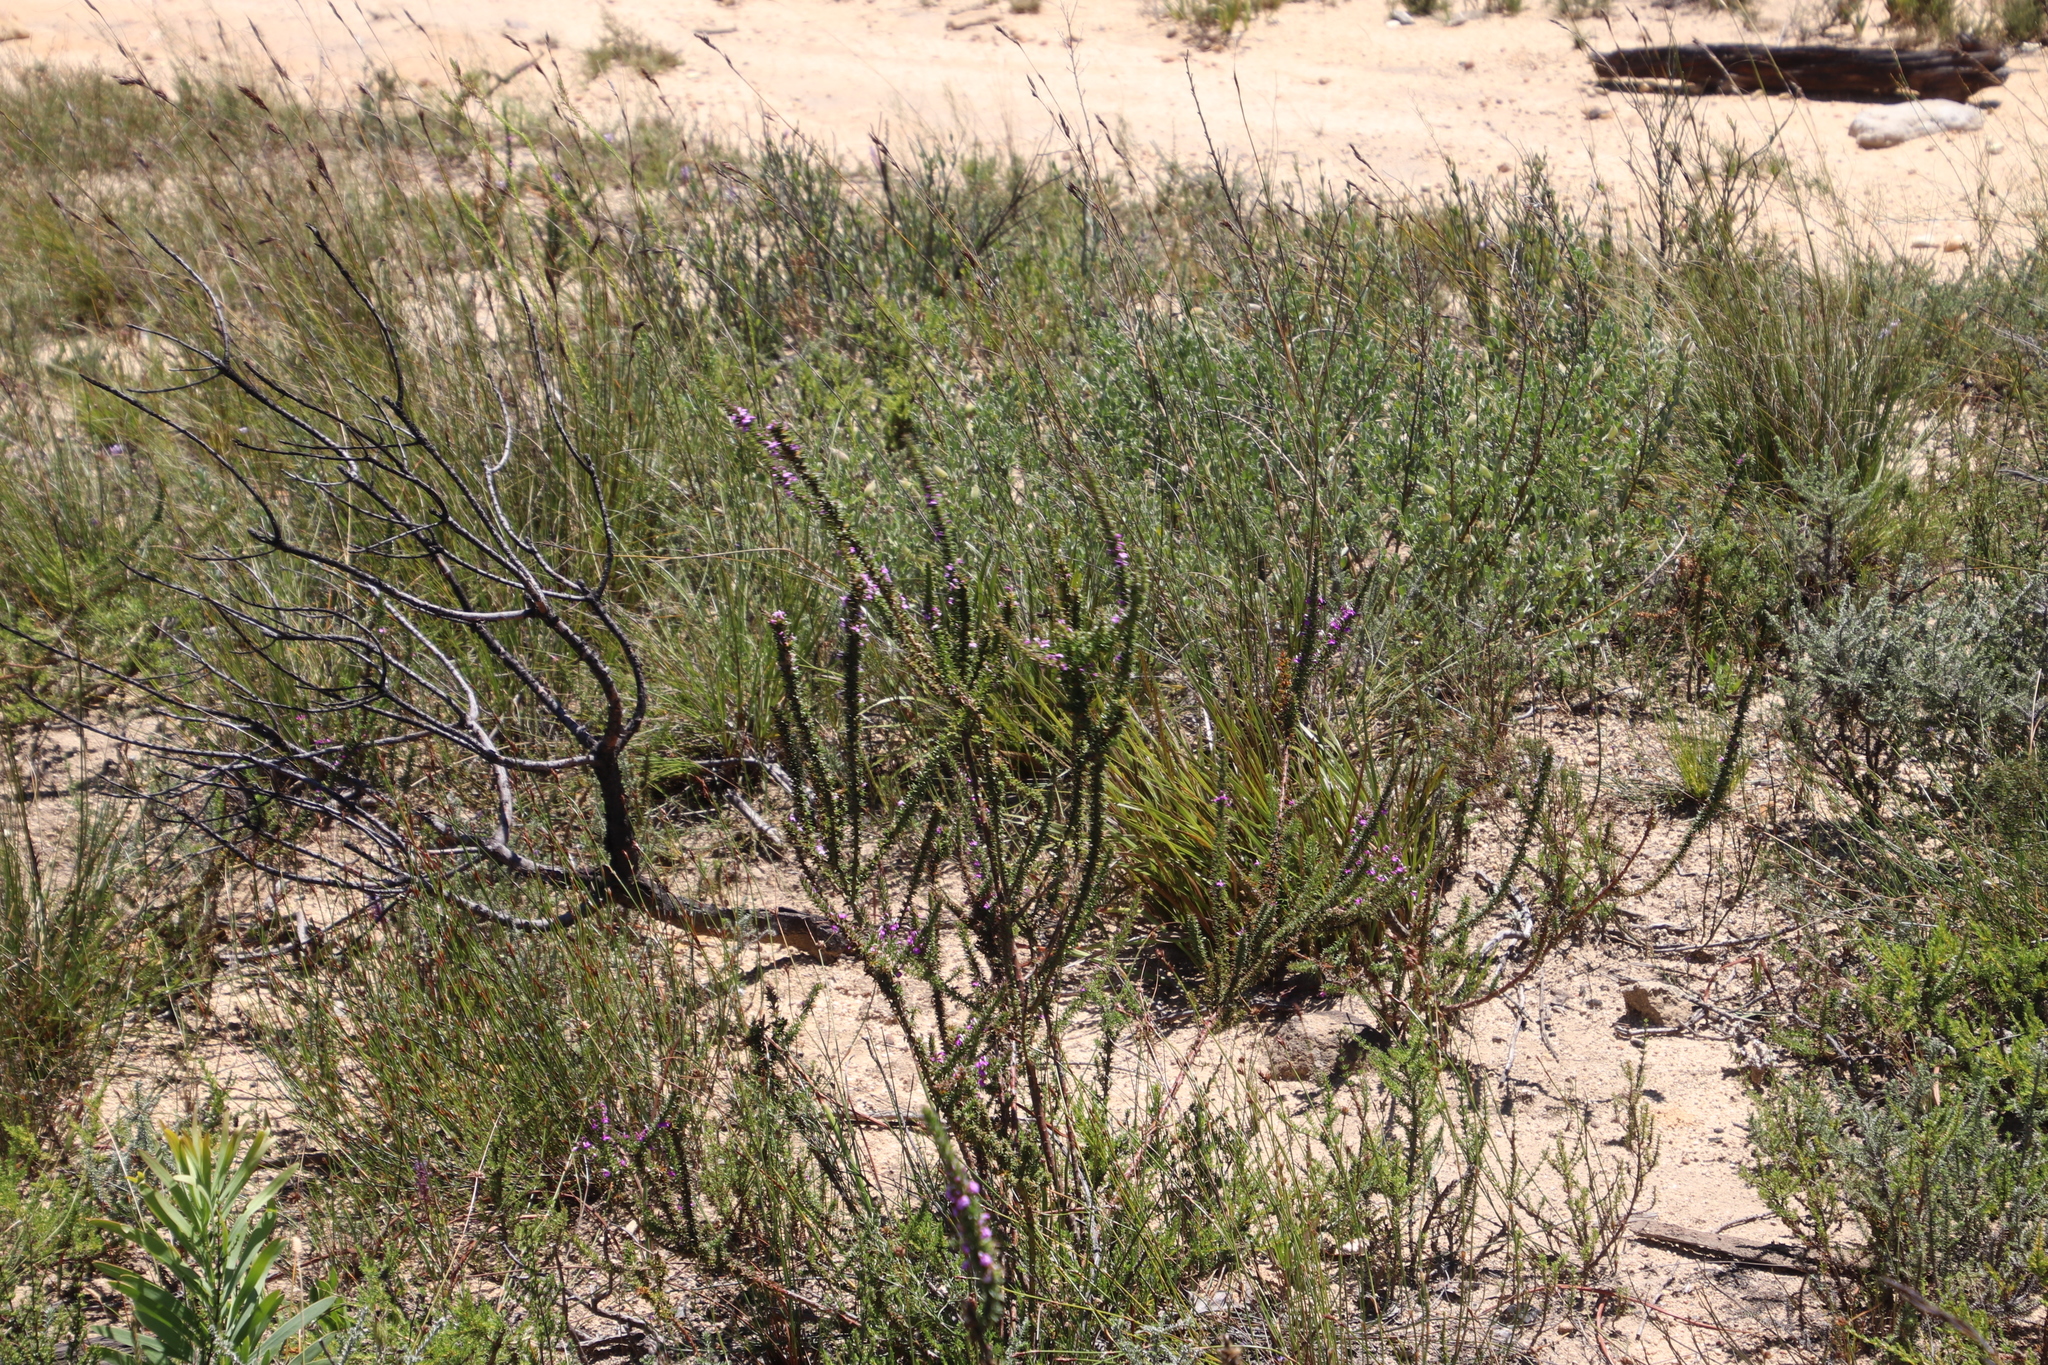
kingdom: Plantae
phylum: Tracheophyta
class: Magnoliopsida
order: Fabales
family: Polygalaceae
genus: Muraltia
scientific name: Muraltia heisteria
